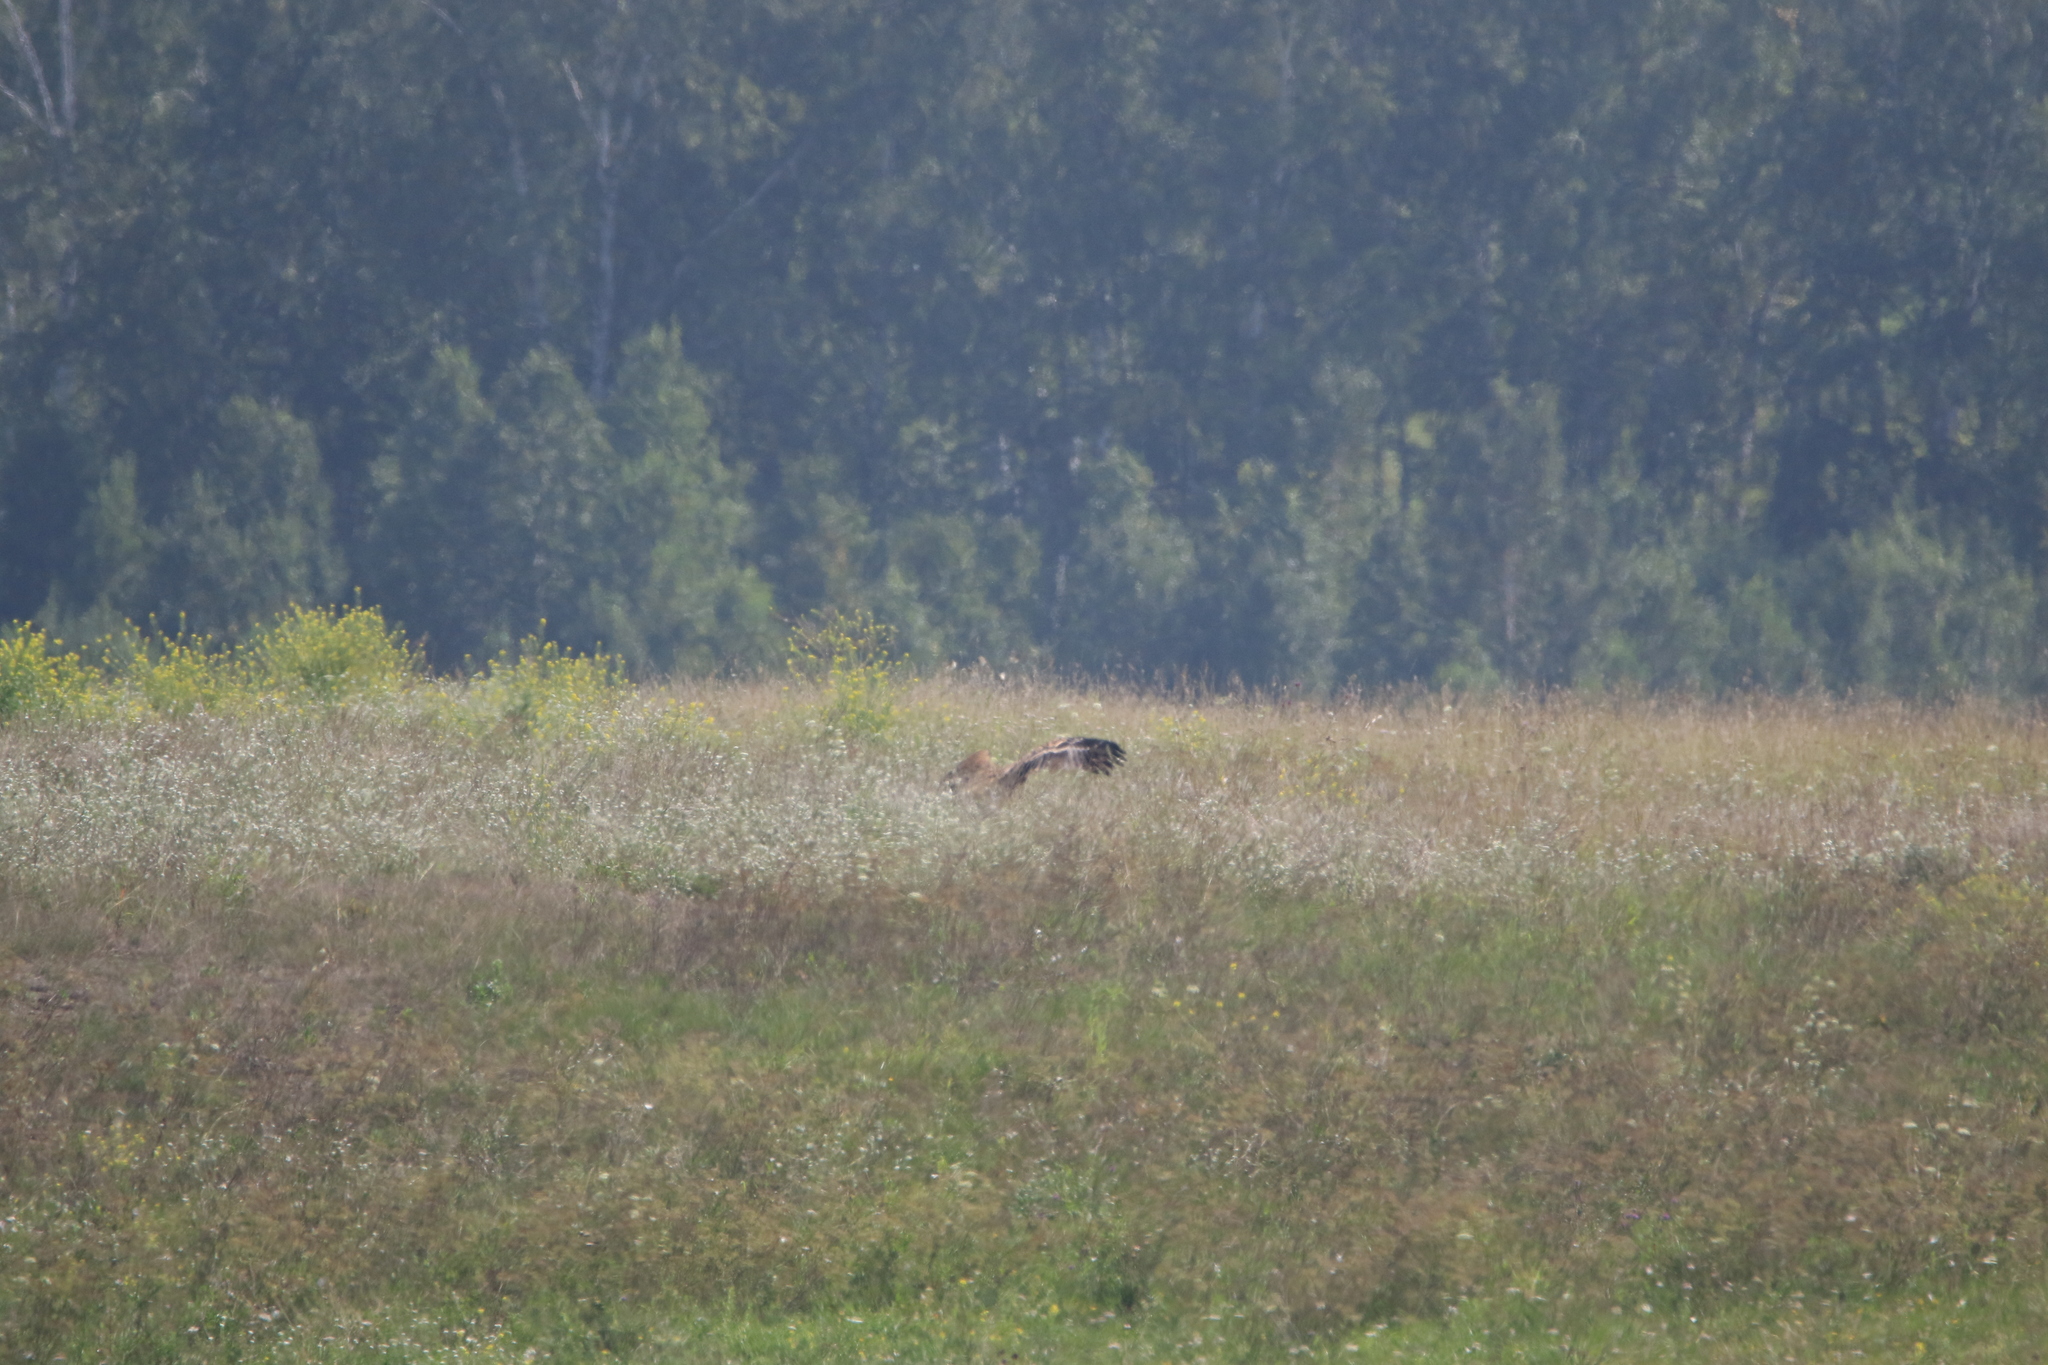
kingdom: Animalia
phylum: Chordata
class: Aves
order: Accipitriformes
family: Accipitridae
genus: Aquila
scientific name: Aquila heliaca
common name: Eastern imperial eagle
